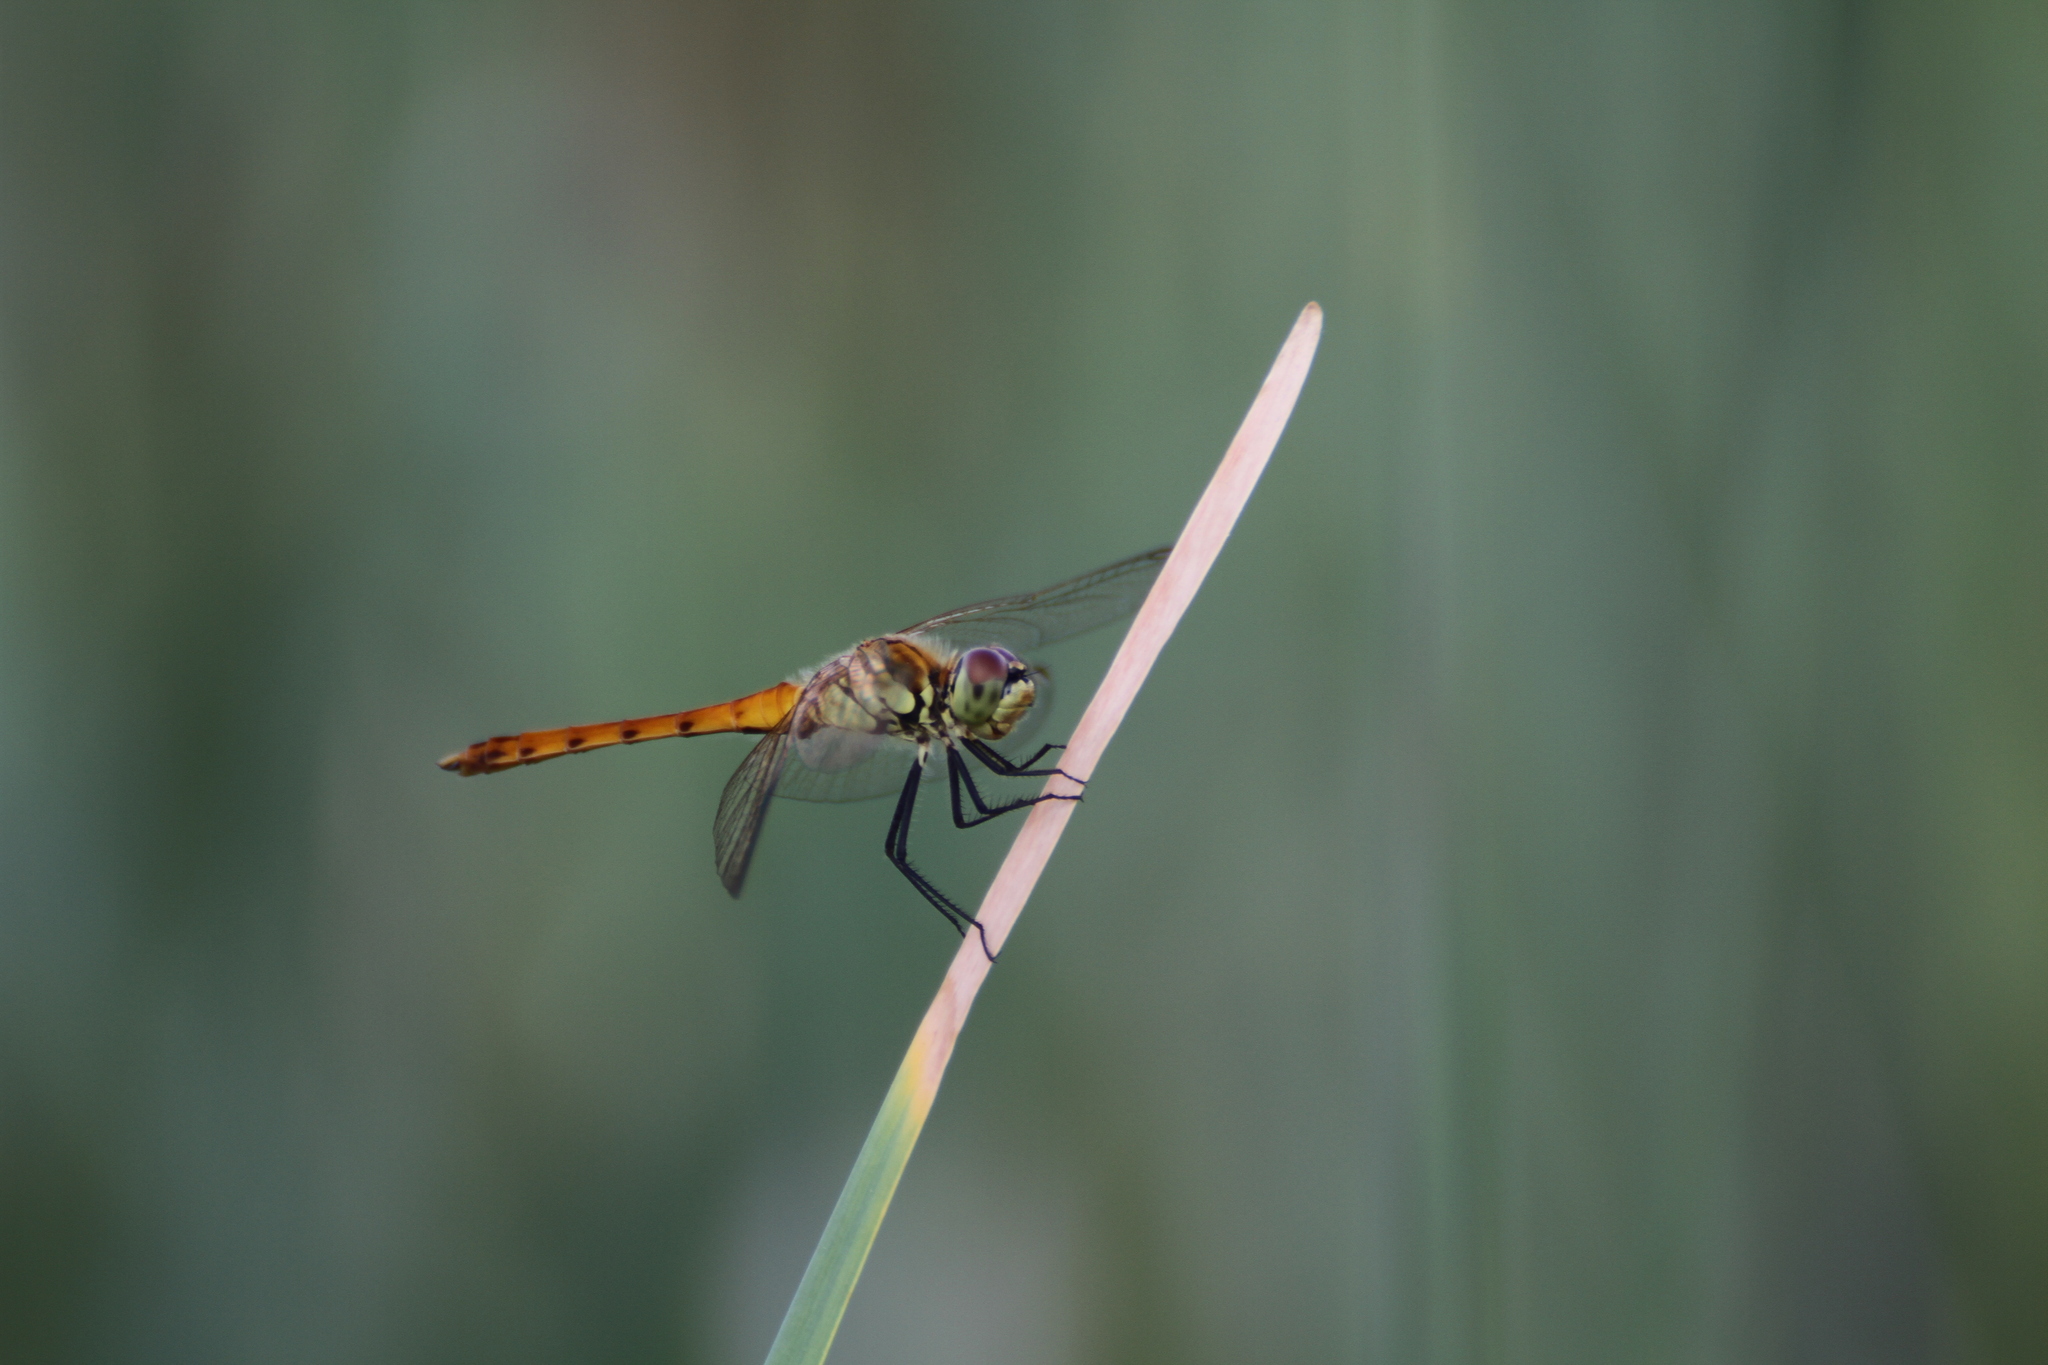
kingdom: Animalia
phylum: Arthropoda
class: Insecta
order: Odonata
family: Libellulidae
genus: Sympetrum
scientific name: Sympetrum depressiusculum
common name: Spotted darter
